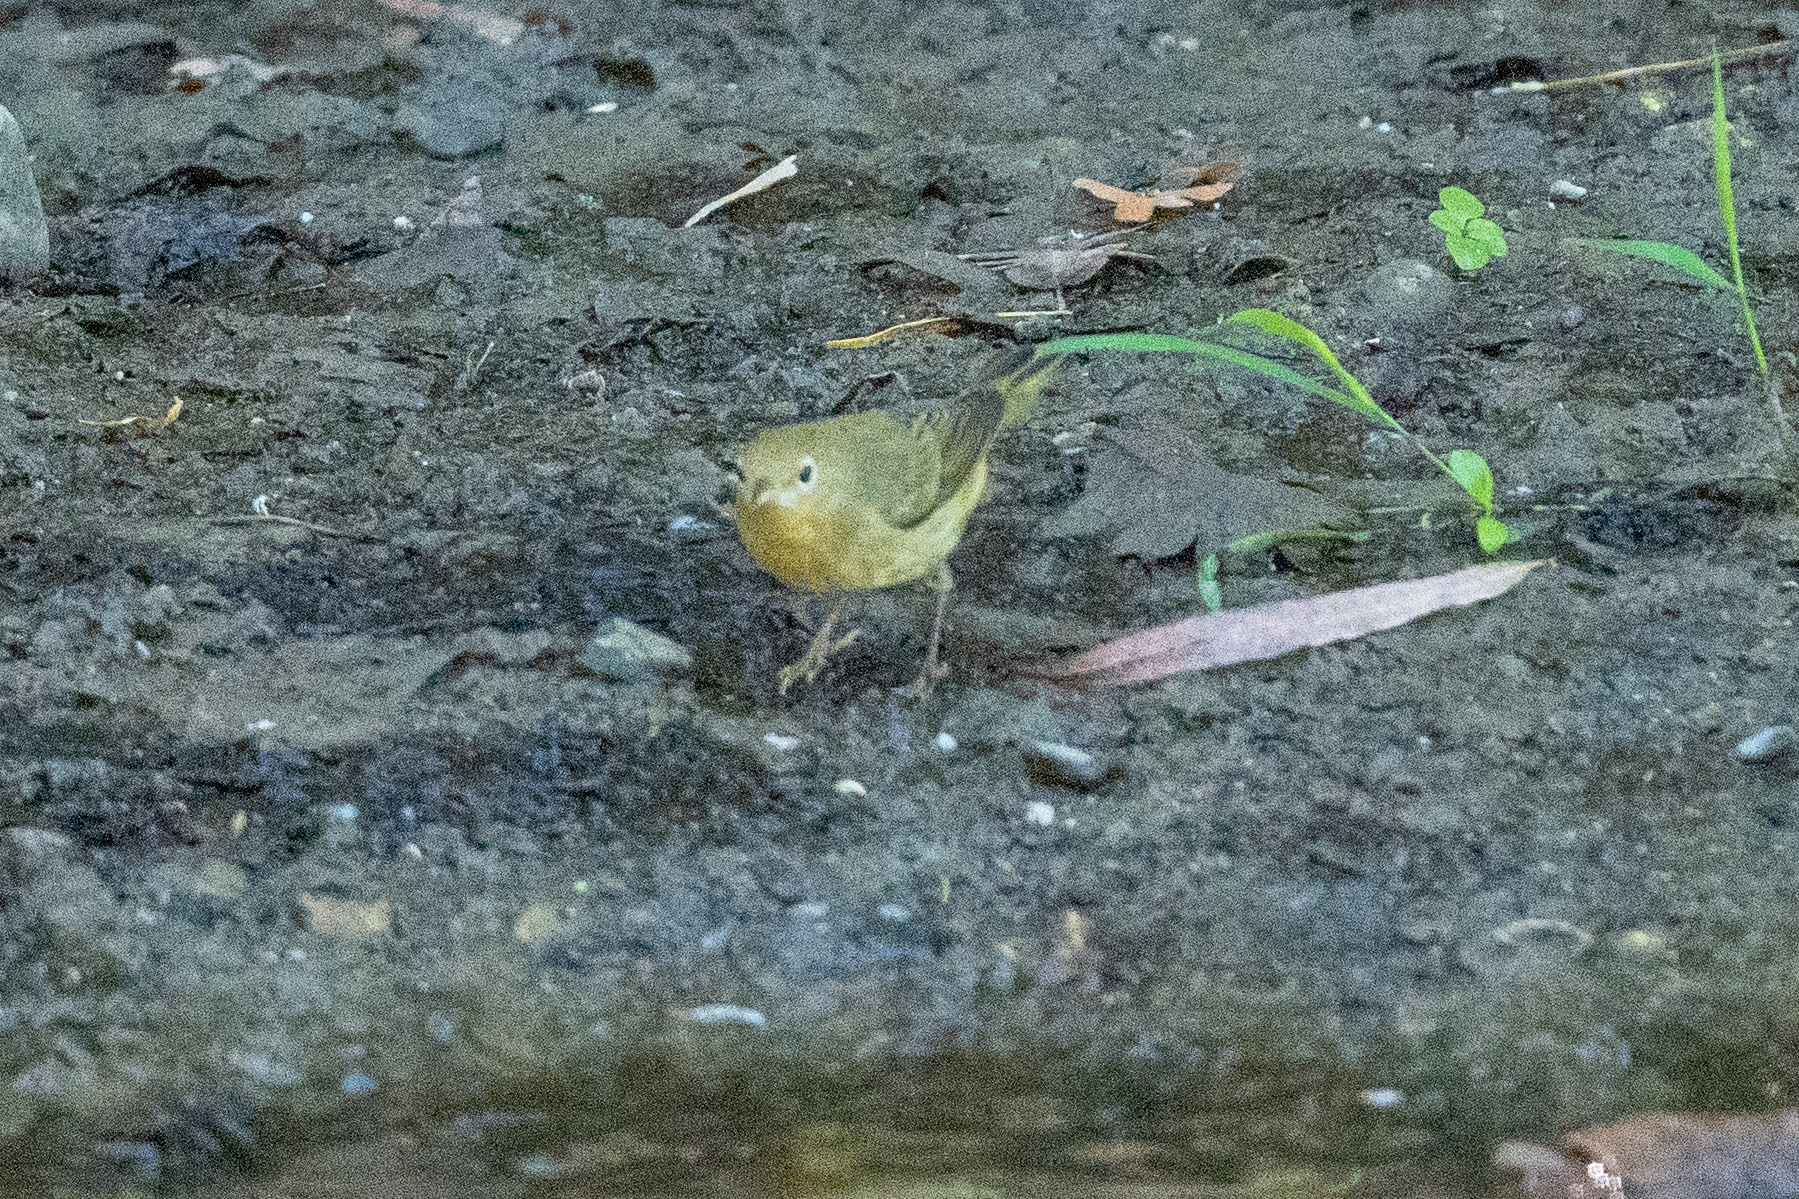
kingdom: Animalia
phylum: Chordata
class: Aves
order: Passeriformes
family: Parulidae
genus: Setophaga
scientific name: Setophaga petechia
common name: Yellow warbler
